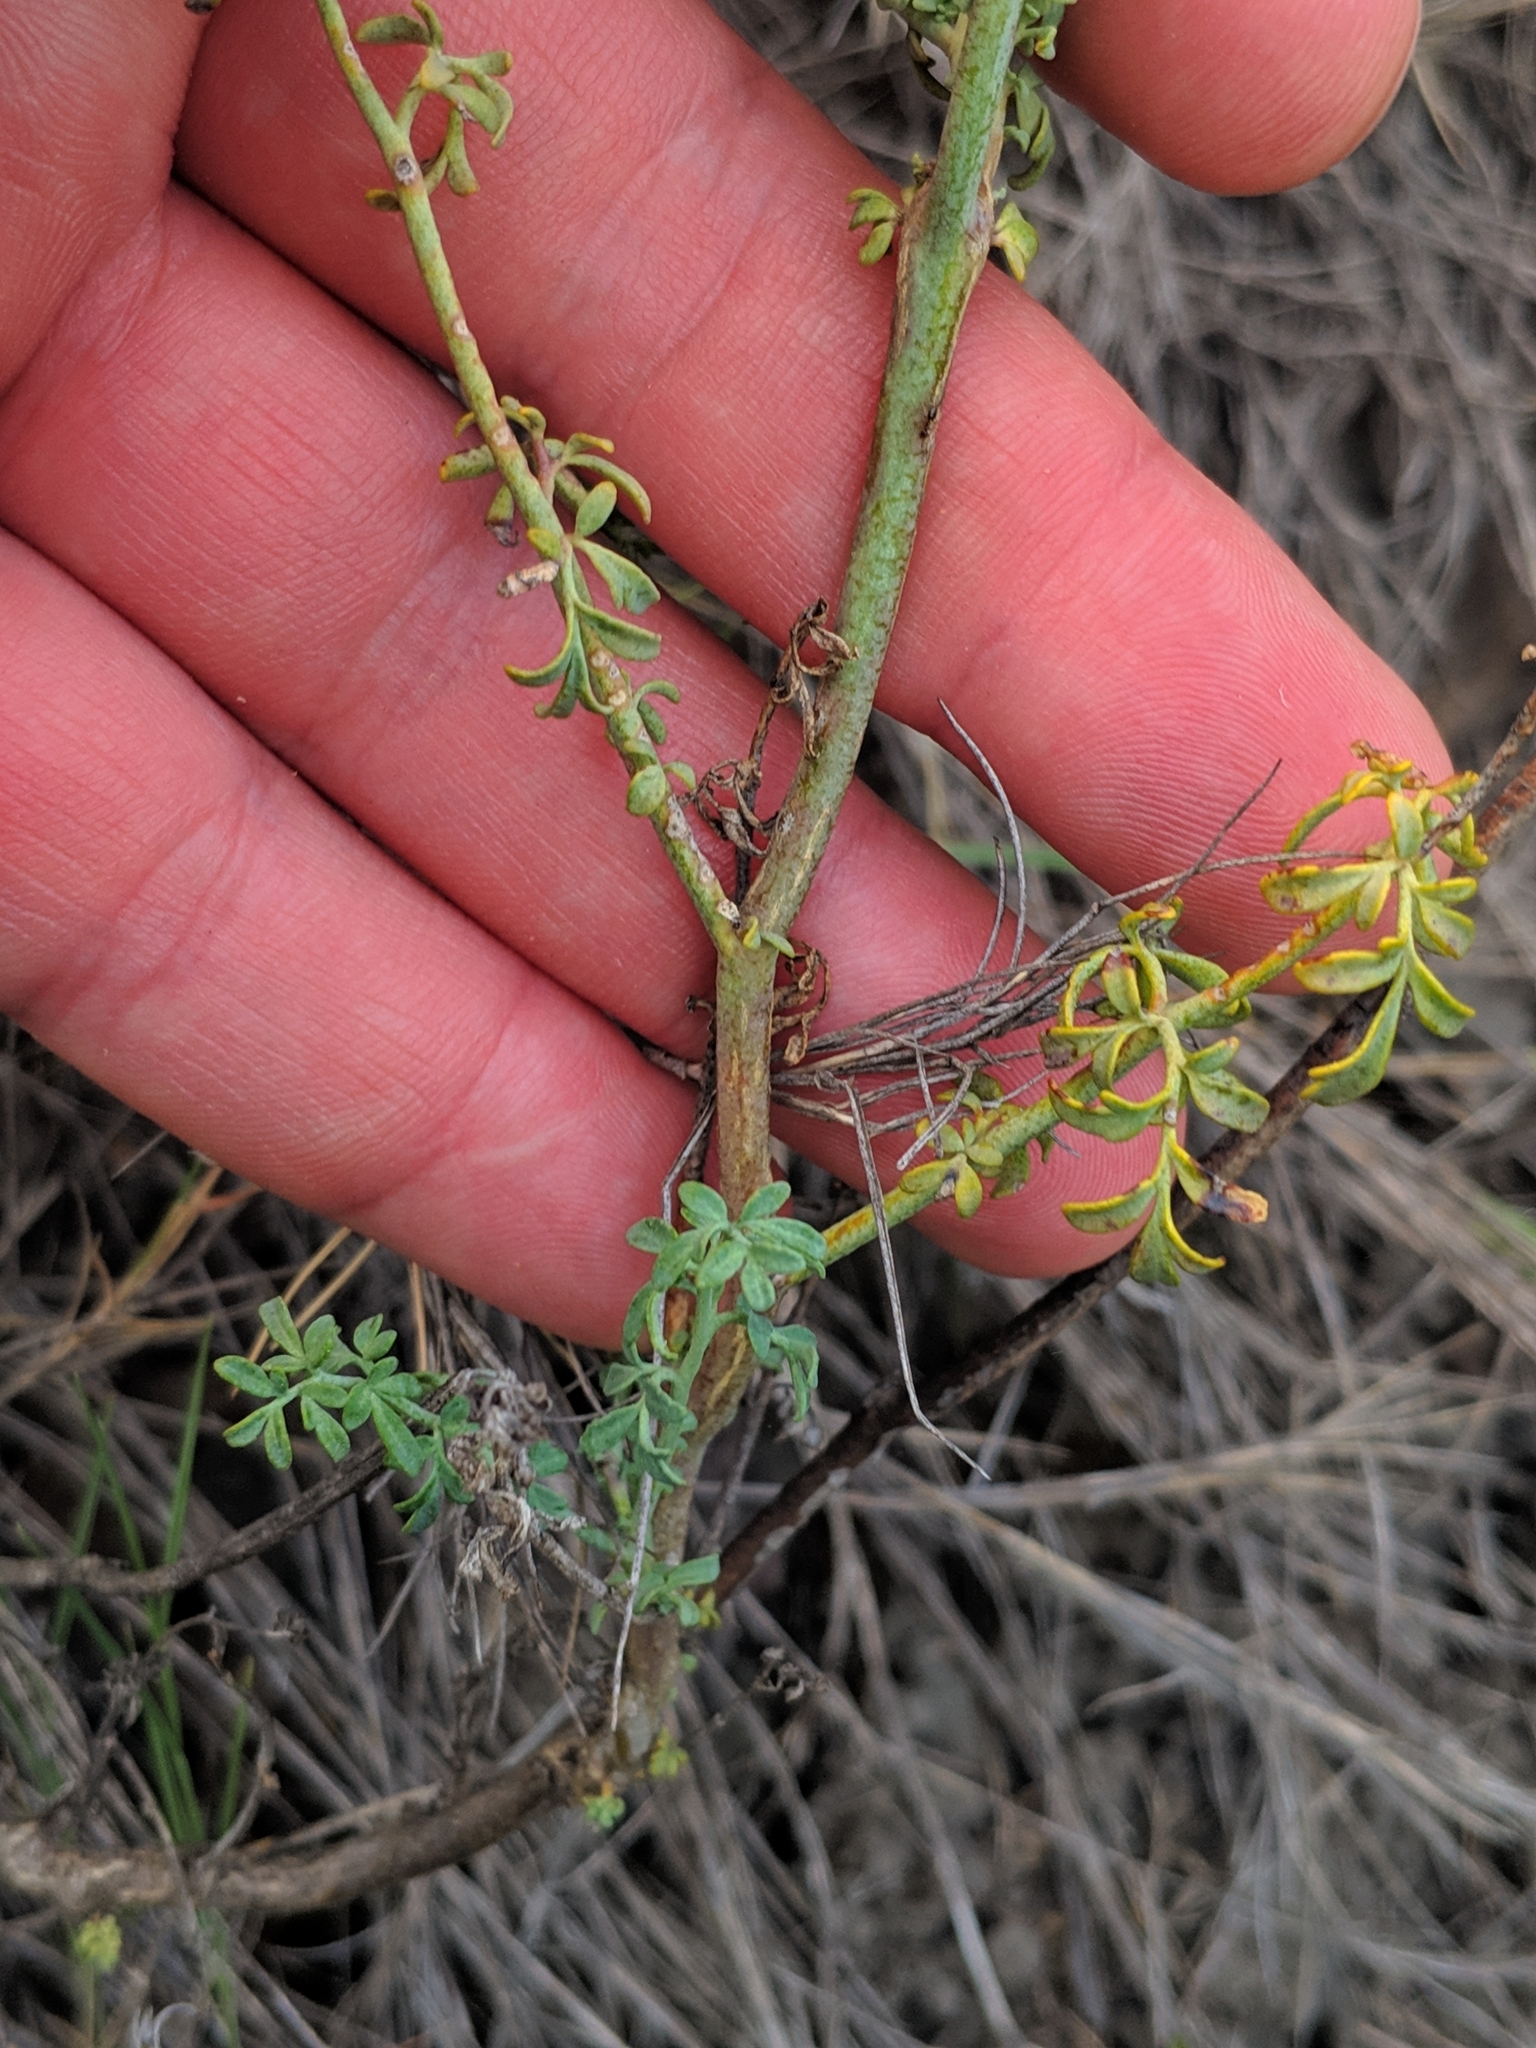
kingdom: Plantae
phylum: Tracheophyta
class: Magnoliopsida
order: Sapindales
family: Rutaceae
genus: Ruta
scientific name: Ruta angustifolia
